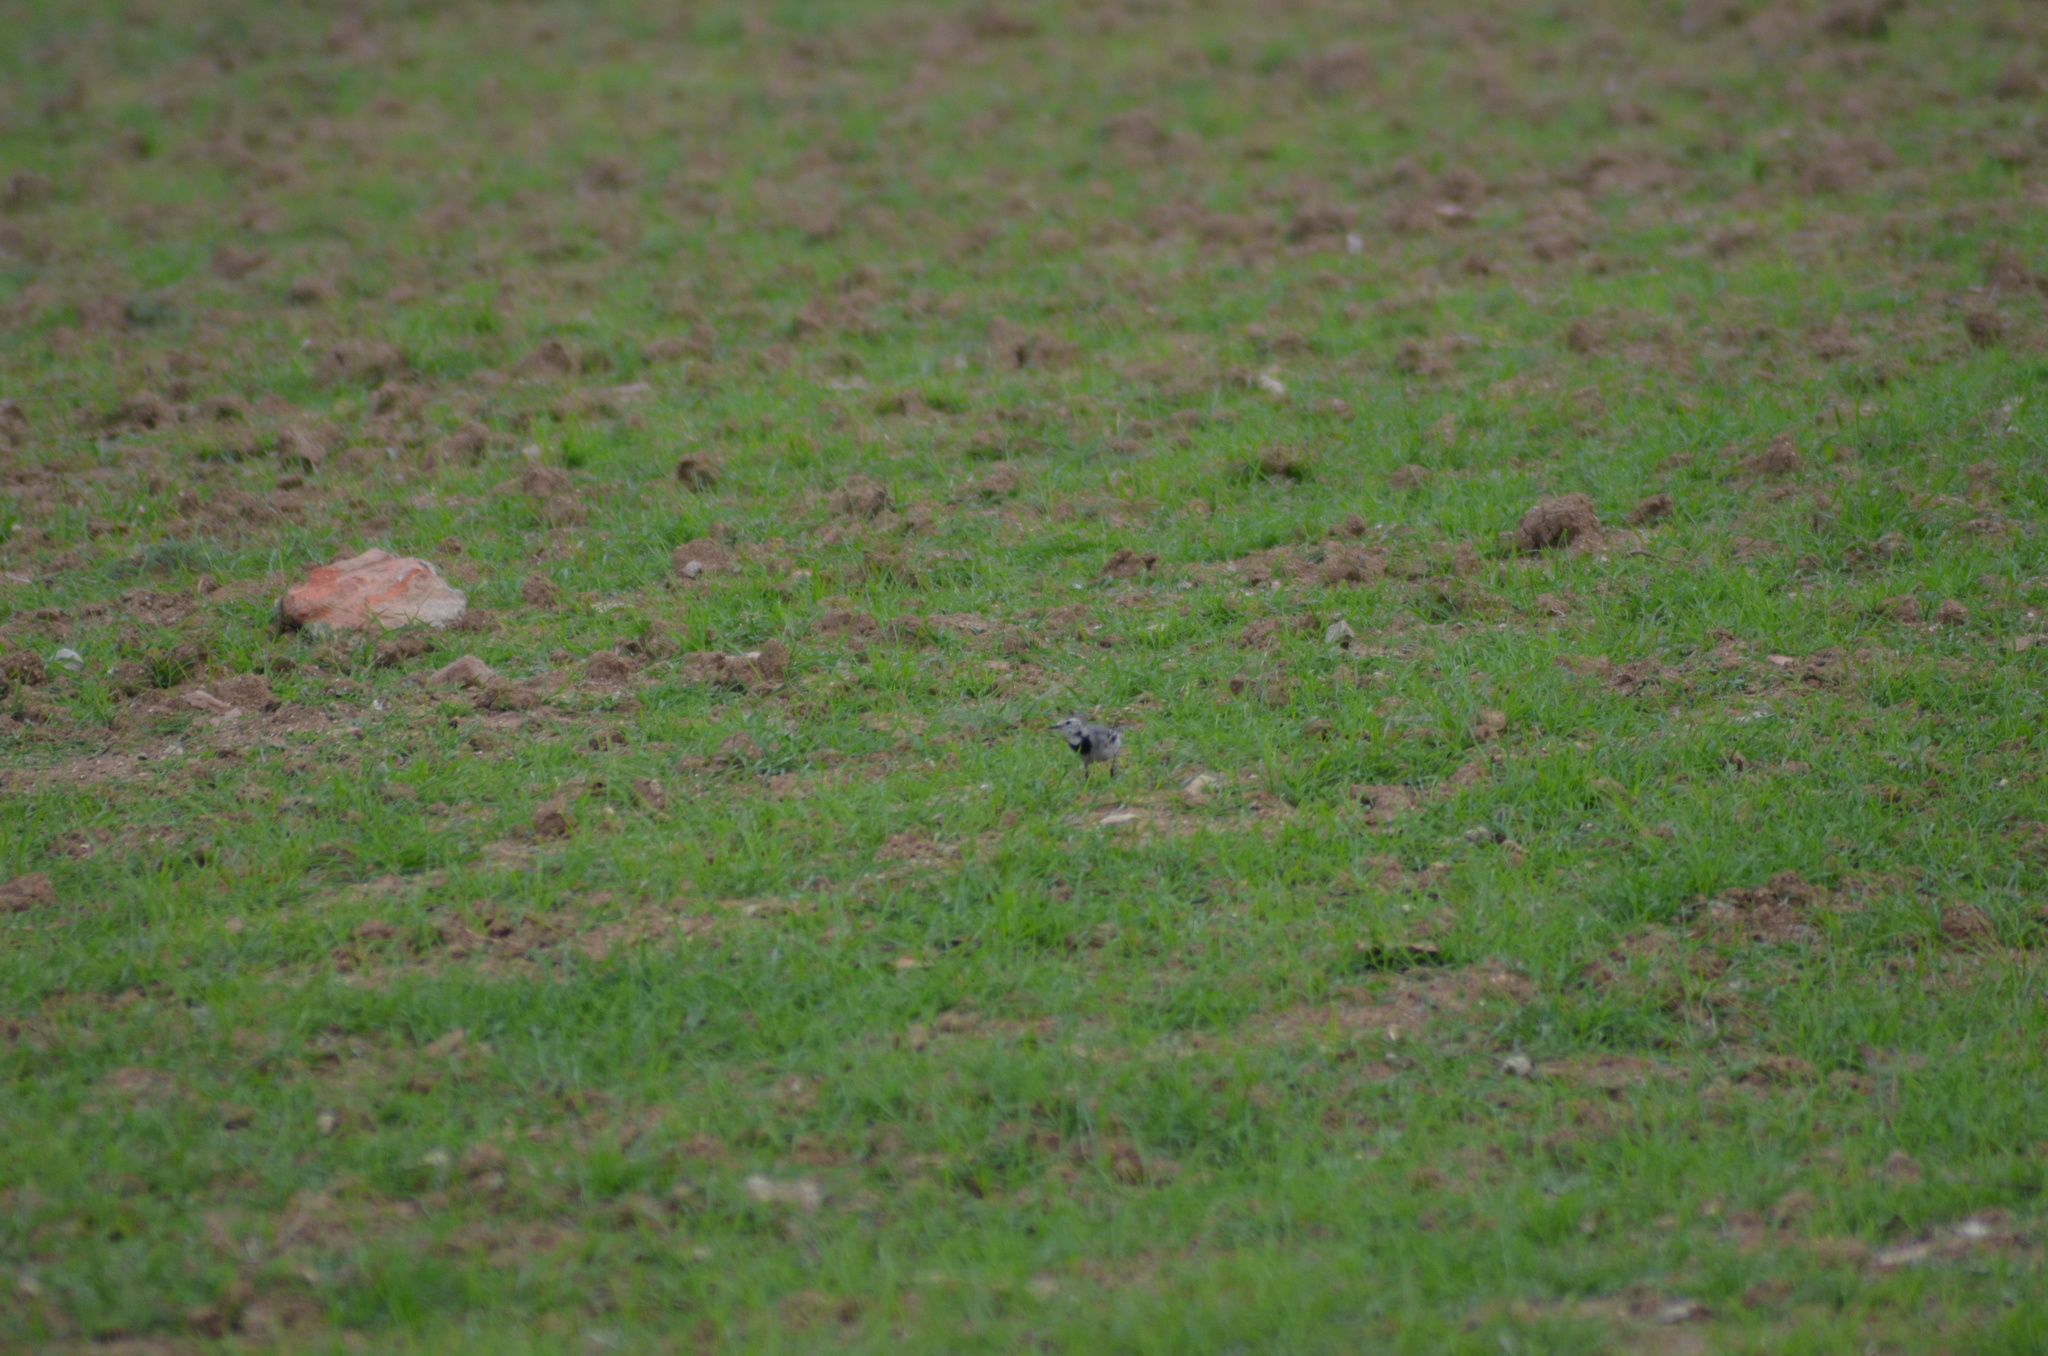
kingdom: Animalia
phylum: Chordata
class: Aves
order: Passeriformes
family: Motacillidae
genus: Motacilla
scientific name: Motacilla alba
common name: White wagtail
